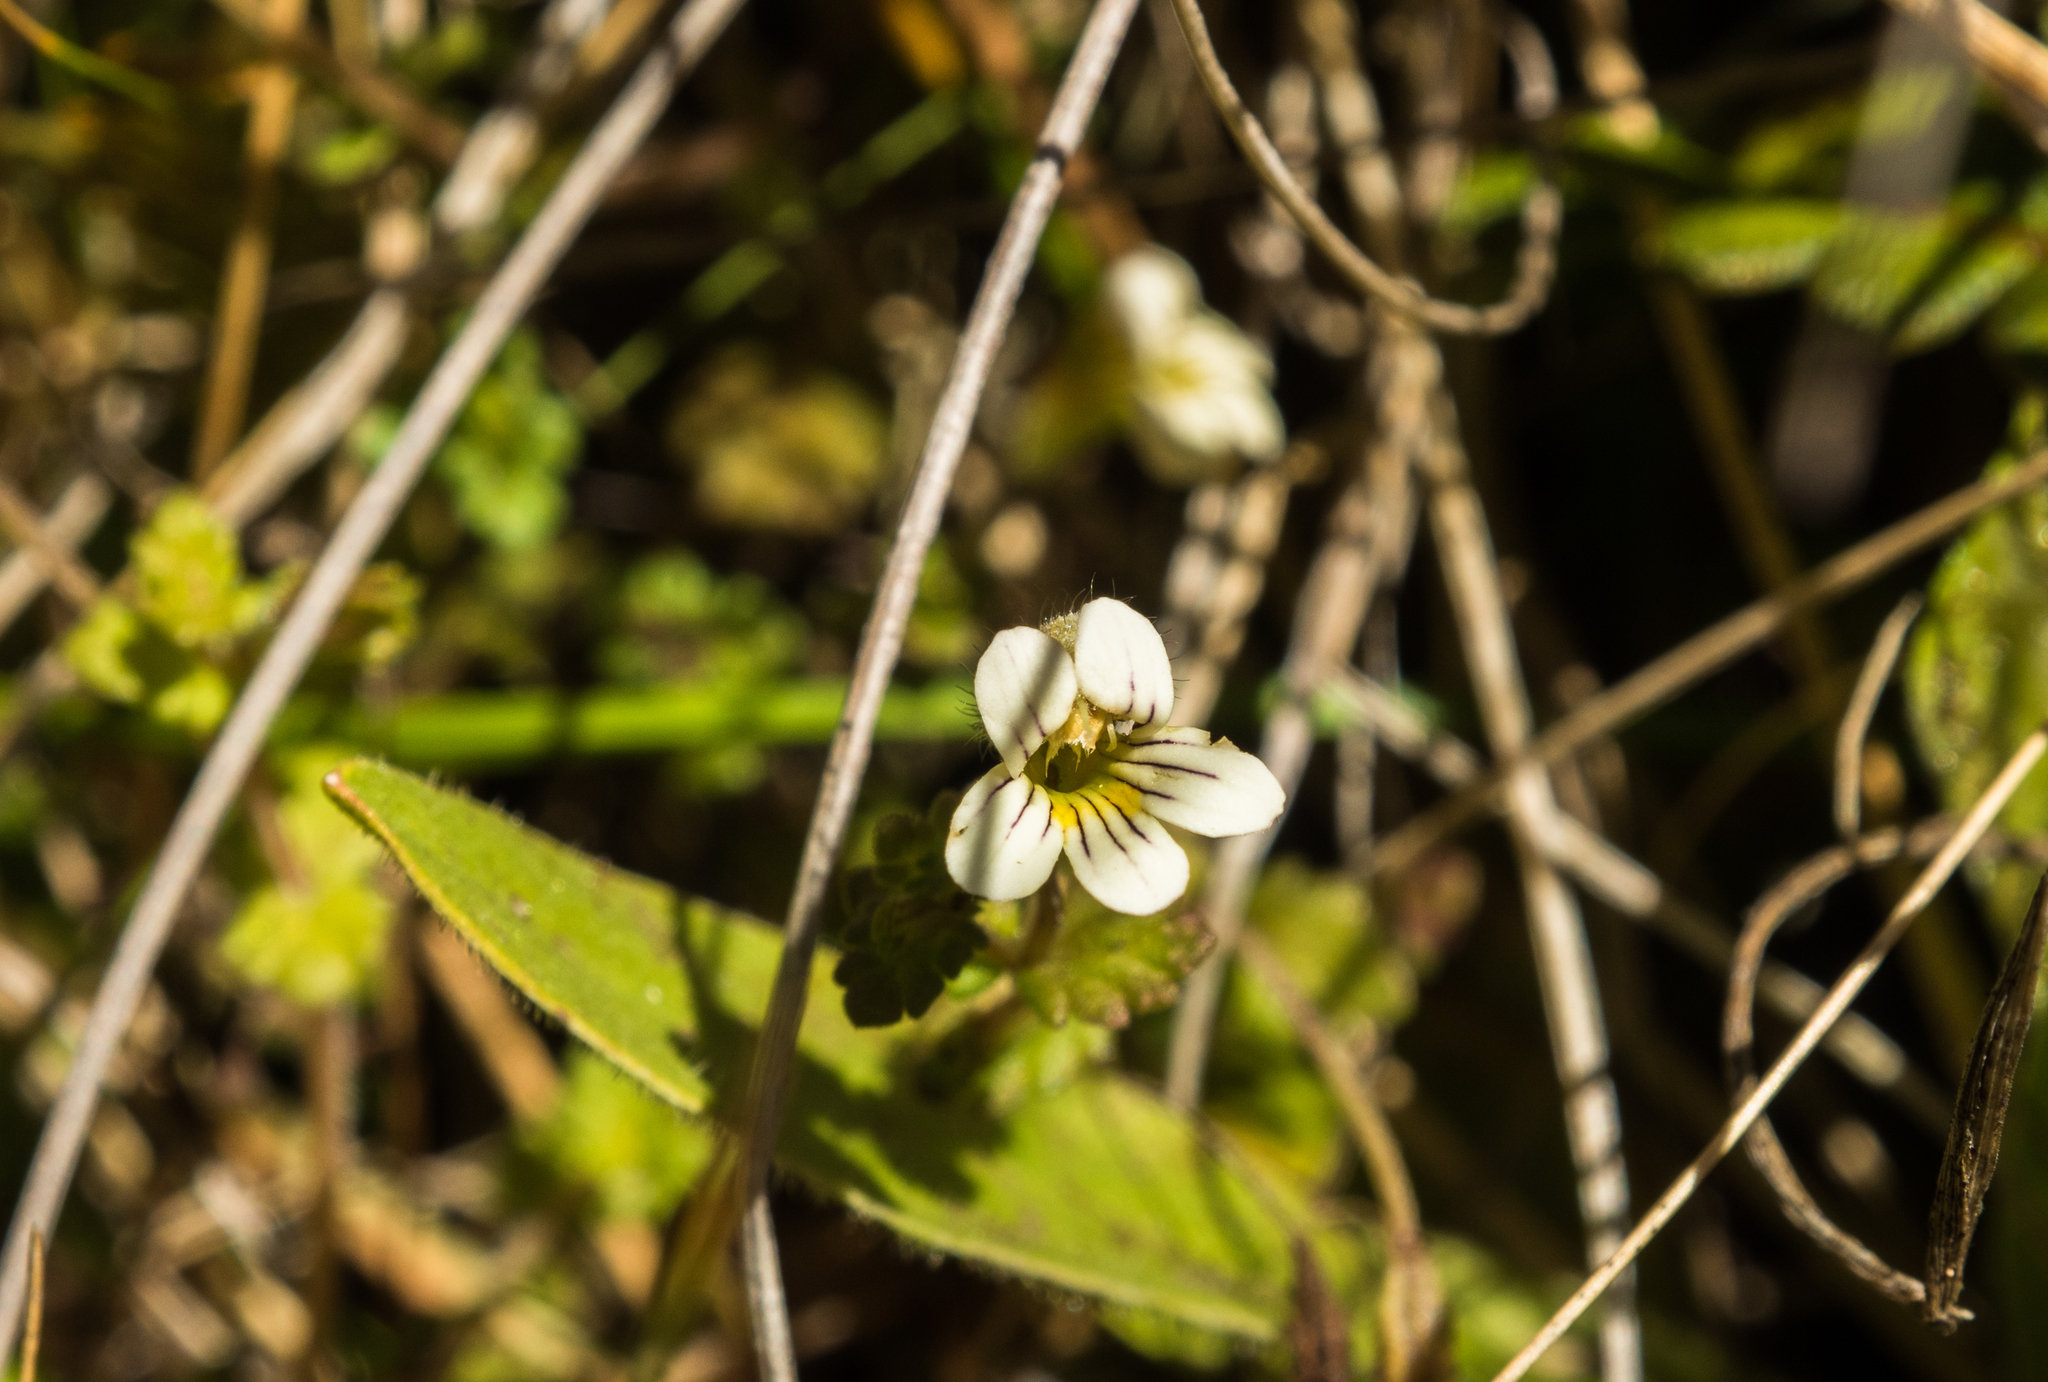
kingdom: Plantae
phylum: Tracheophyta
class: Magnoliopsida
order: Lamiales
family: Orobanchaceae
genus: Euphrasia
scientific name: Euphrasia cheesemanii
